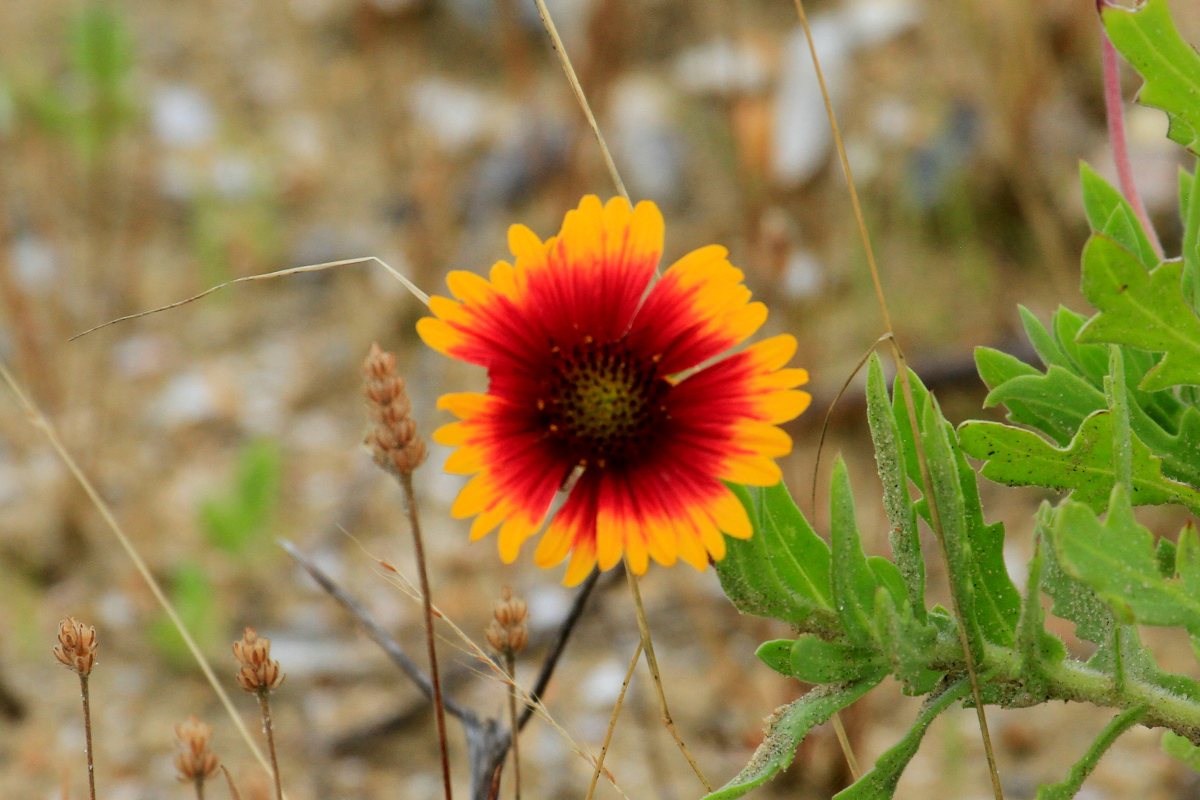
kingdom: Plantae
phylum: Tracheophyta
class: Magnoliopsida
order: Asterales
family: Asteraceae
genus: Gaillardia
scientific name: Gaillardia pulchella
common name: Firewheel
